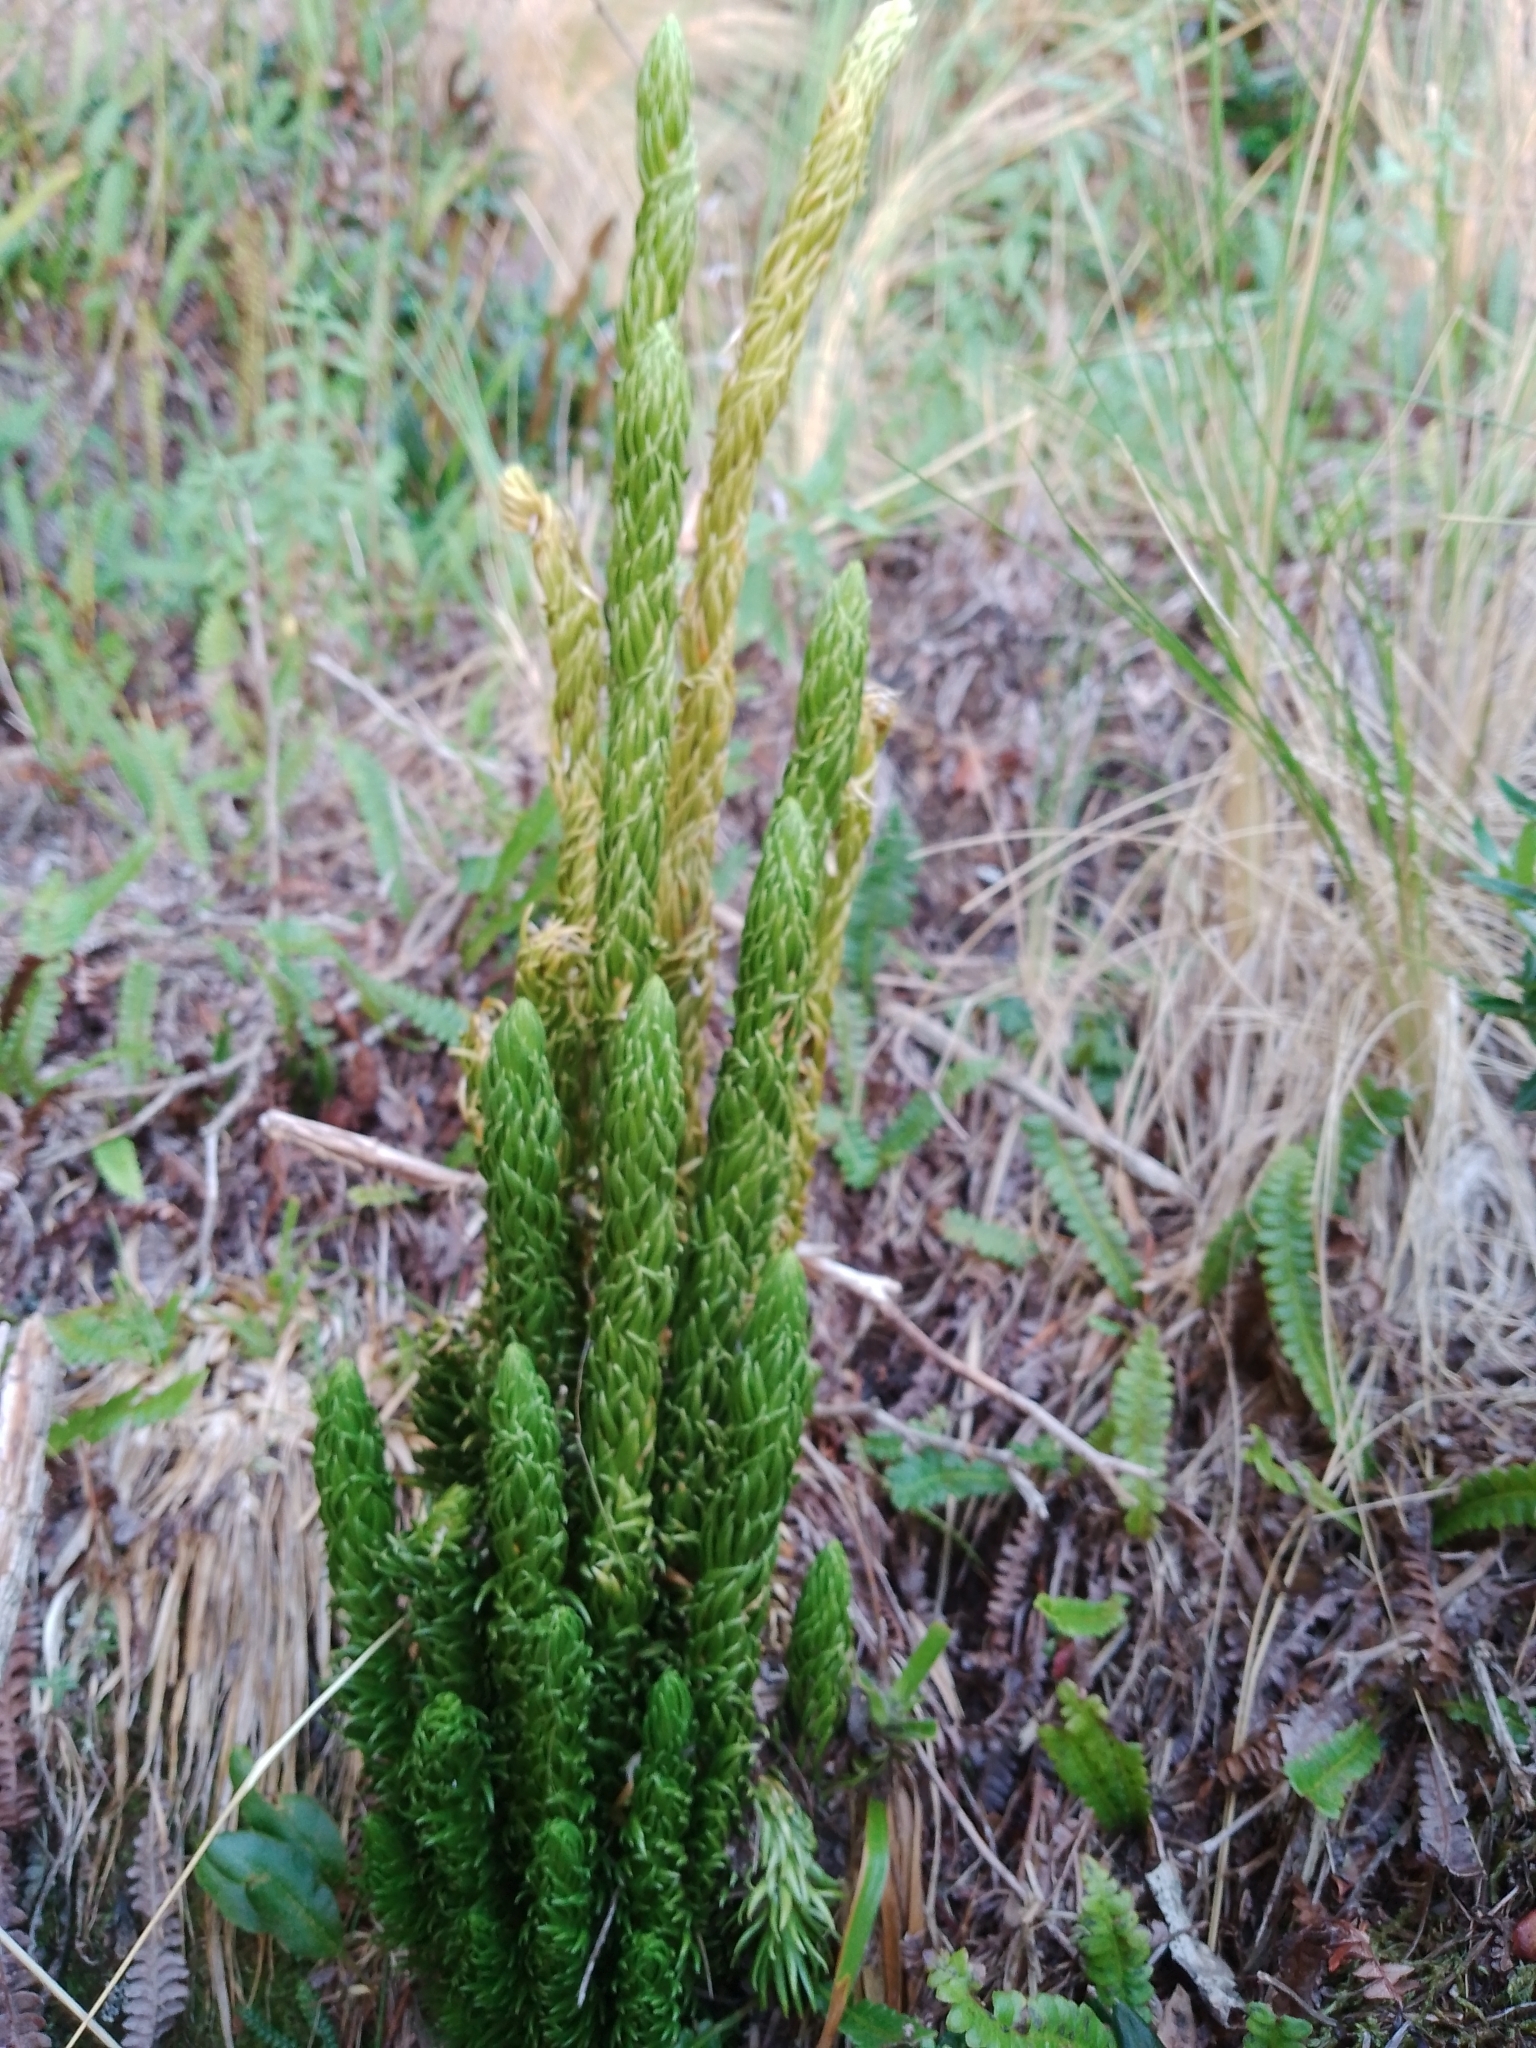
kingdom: Plantae
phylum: Tracheophyta
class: Lycopodiopsida
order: Lycopodiales
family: Lycopodiaceae
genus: Phlegmariurus
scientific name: Phlegmariurus saururus
